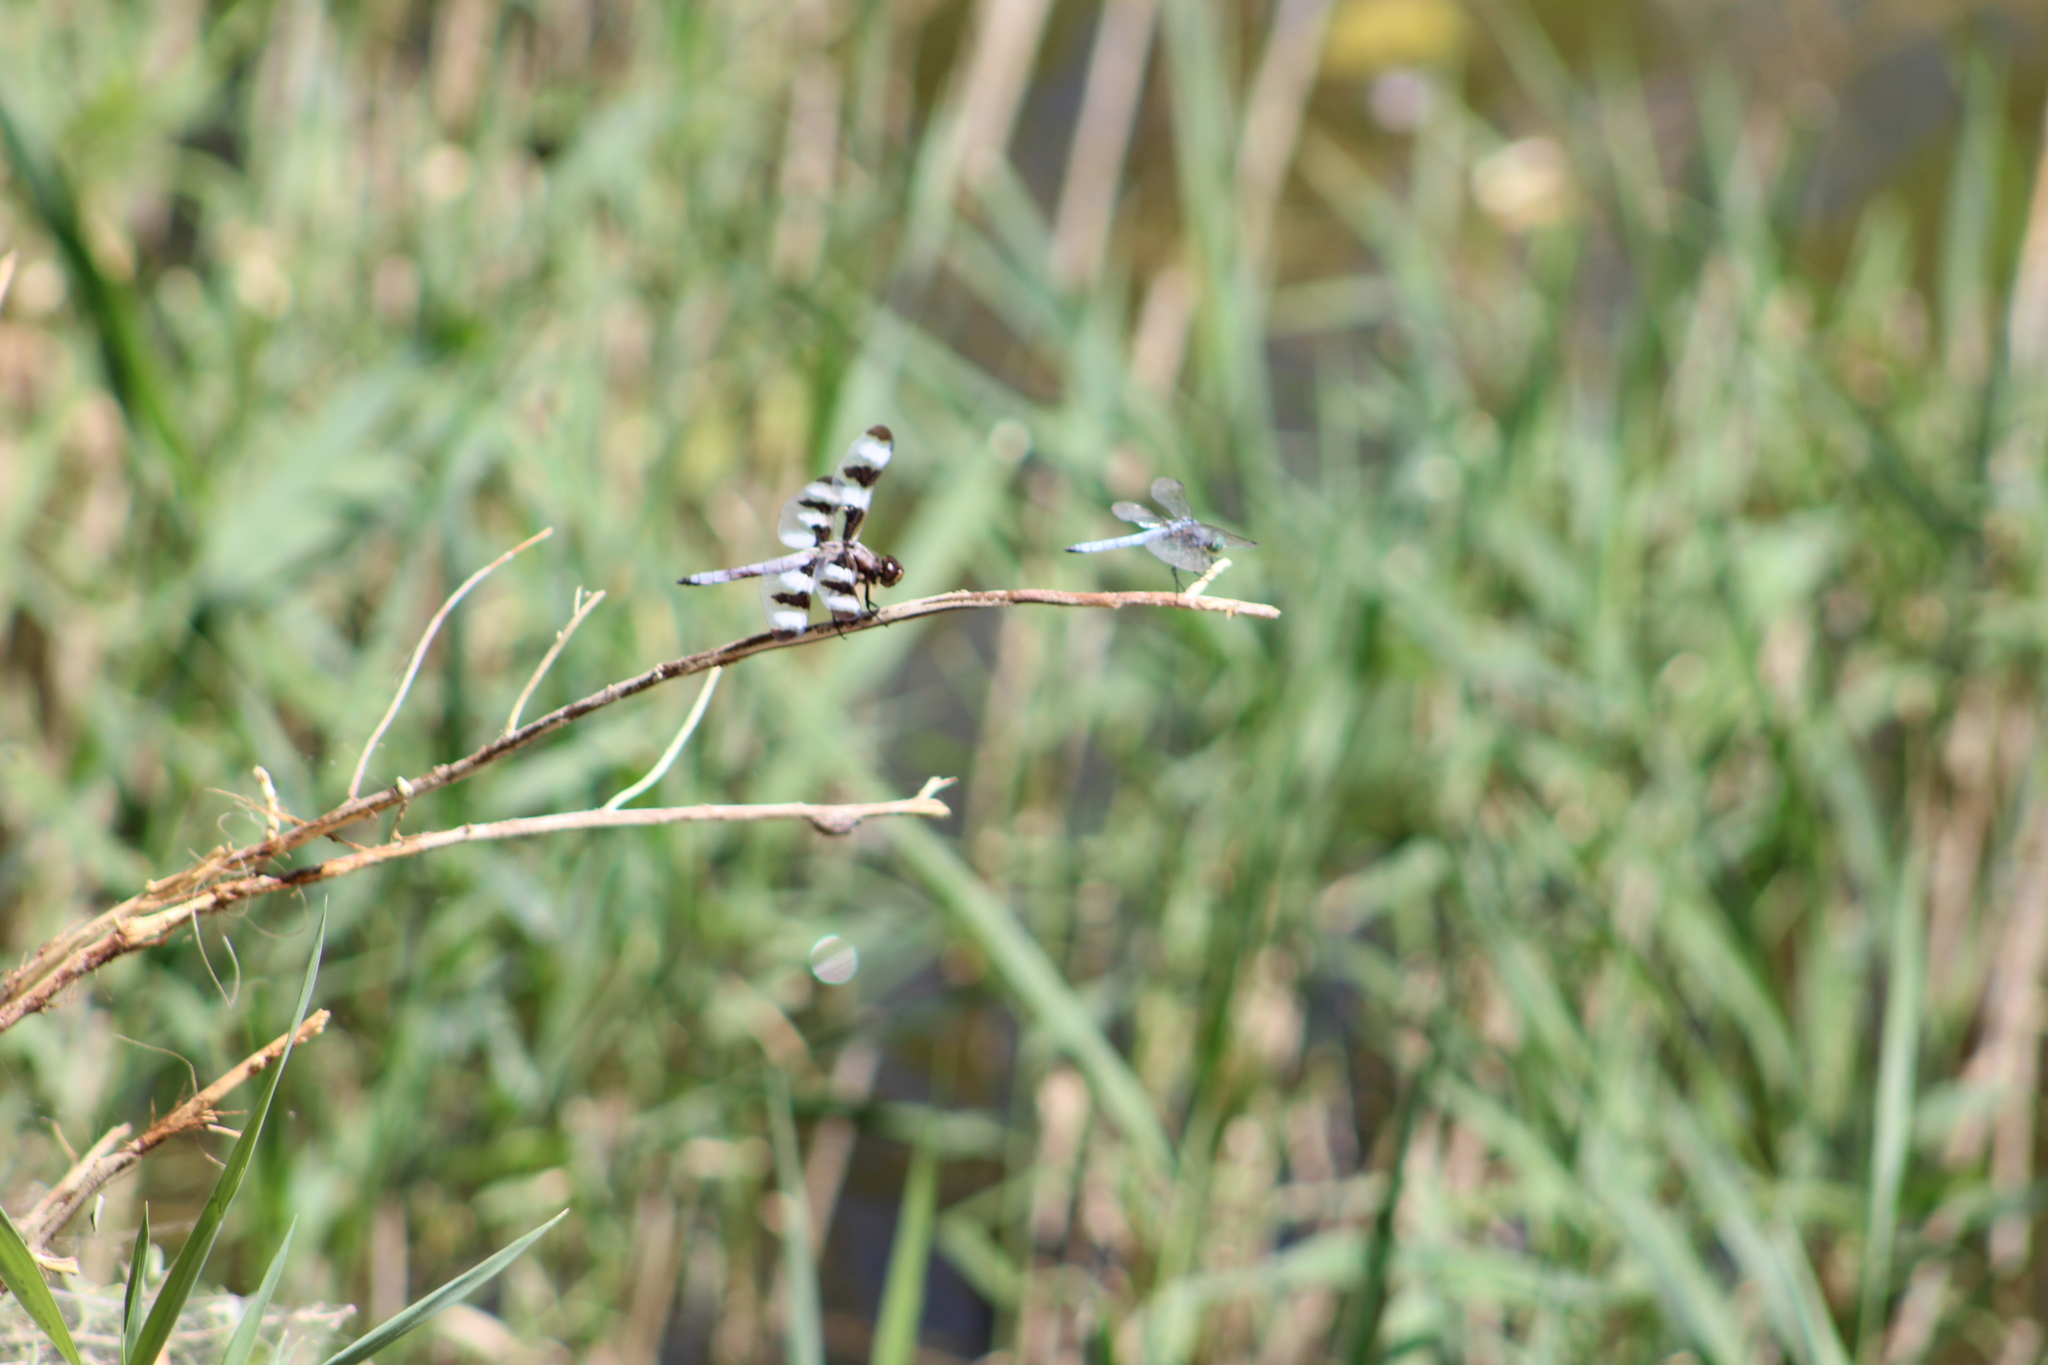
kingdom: Animalia
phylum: Arthropoda
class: Insecta
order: Odonata
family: Libellulidae
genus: Pachydiplax
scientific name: Pachydiplax longipennis
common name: Blue dasher
